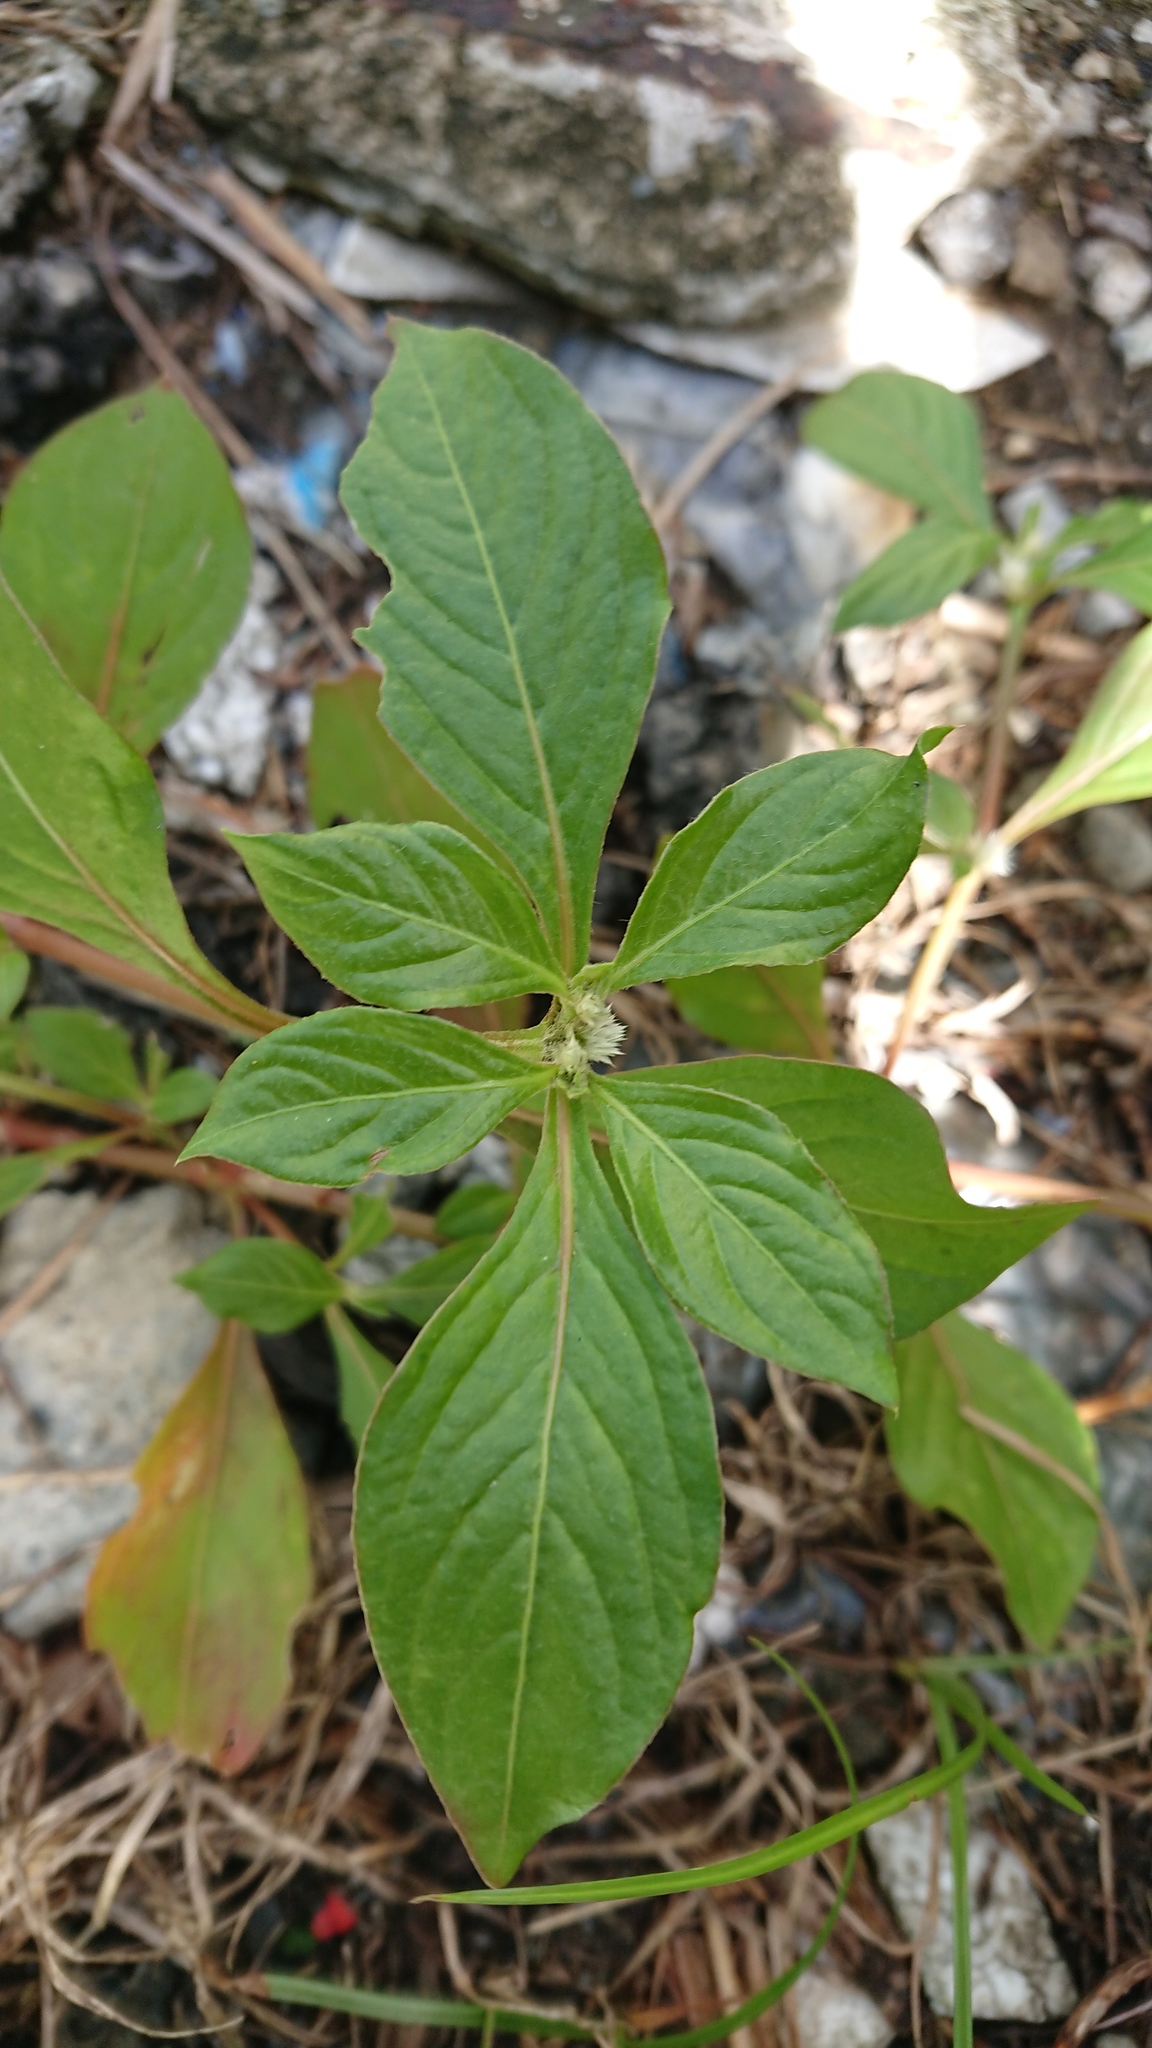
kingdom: Plantae
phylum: Tracheophyta
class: Magnoliopsida
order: Caryophyllales
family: Amaranthaceae
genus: Alternanthera
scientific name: Alternanthera bettzickiana
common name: Calico-plant
